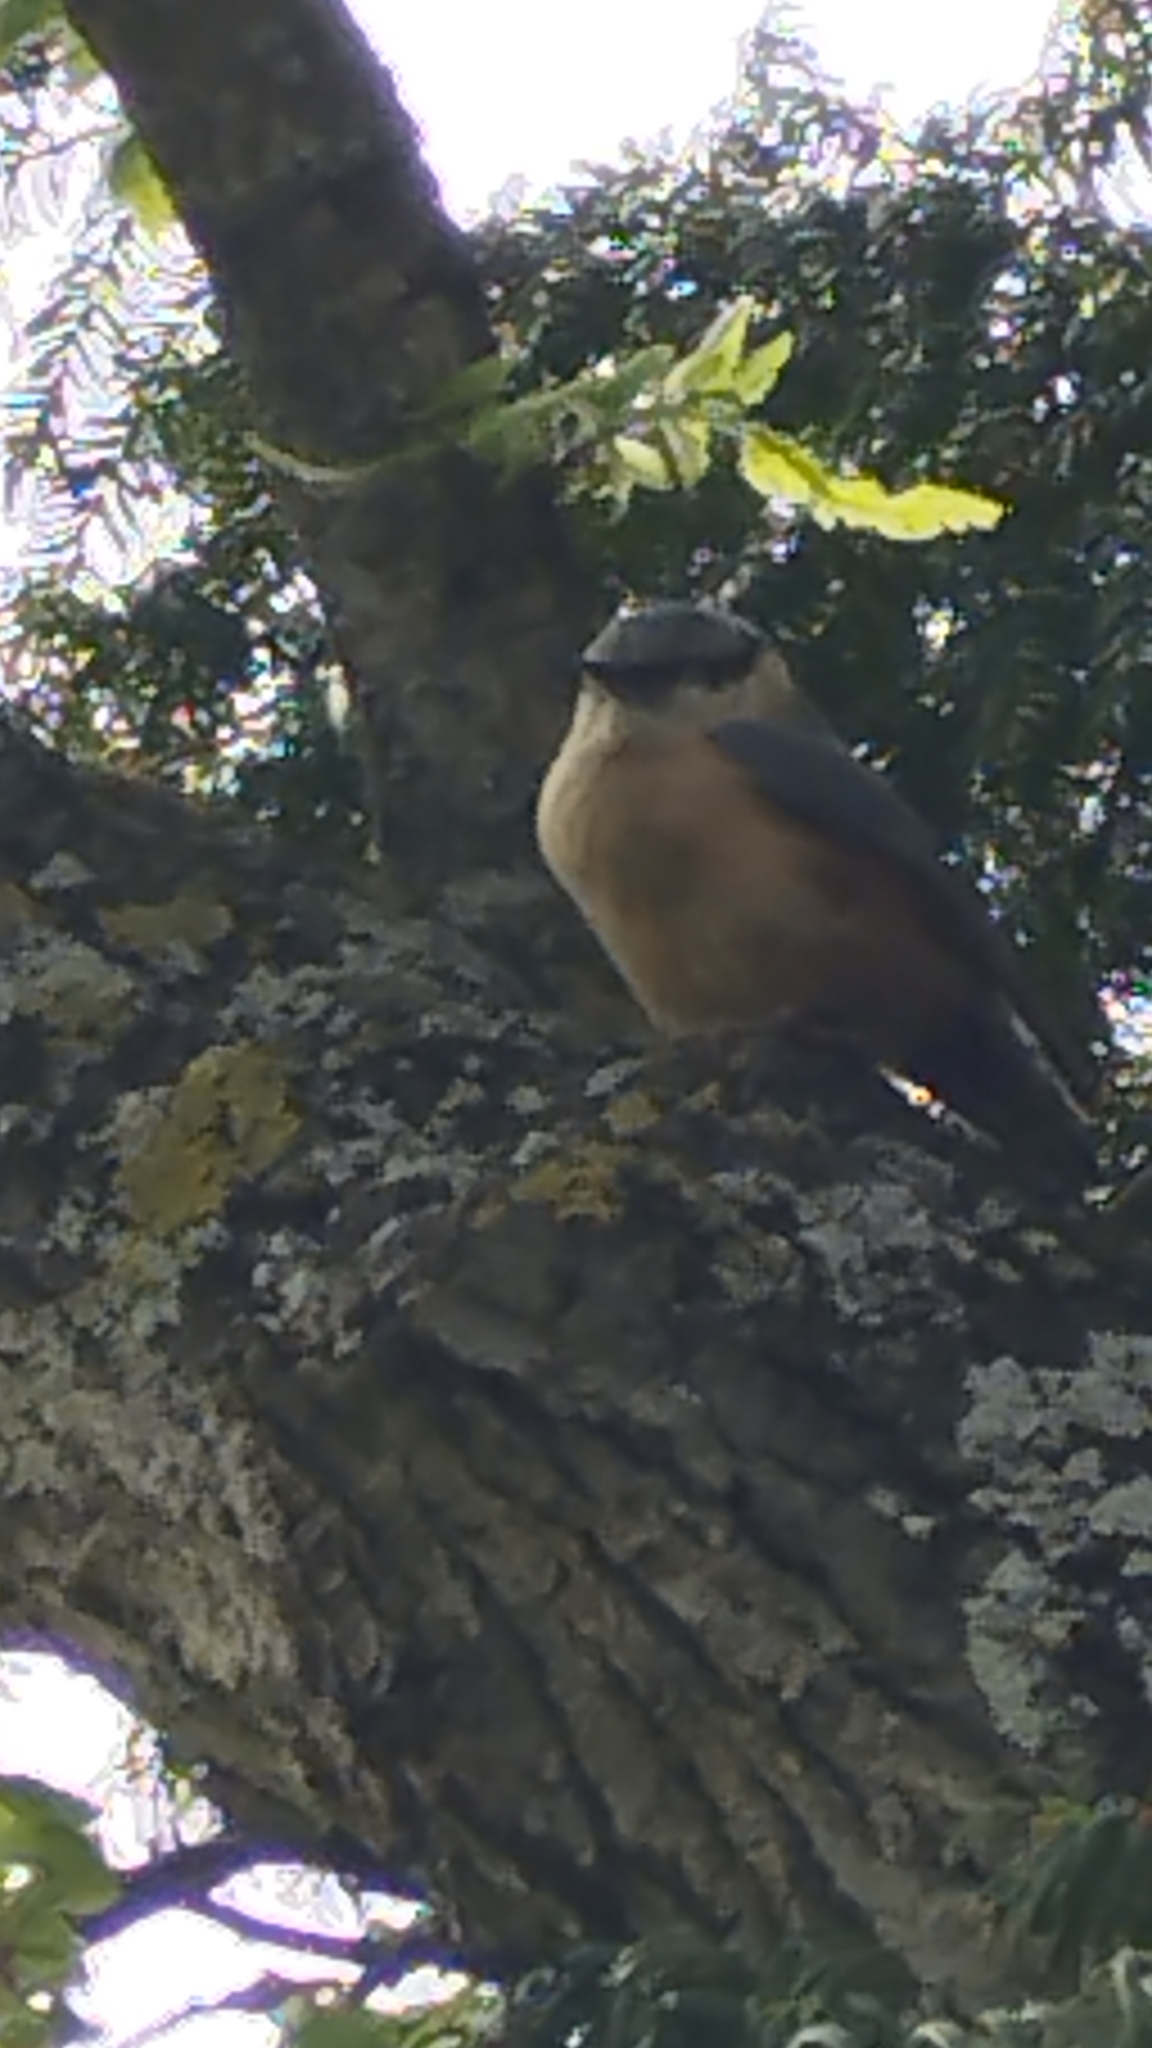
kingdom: Animalia
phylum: Chordata
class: Aves
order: Passeriformes
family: Sittidae
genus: Sitta
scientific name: Sitta europaea
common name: Eurasian nuthatch
